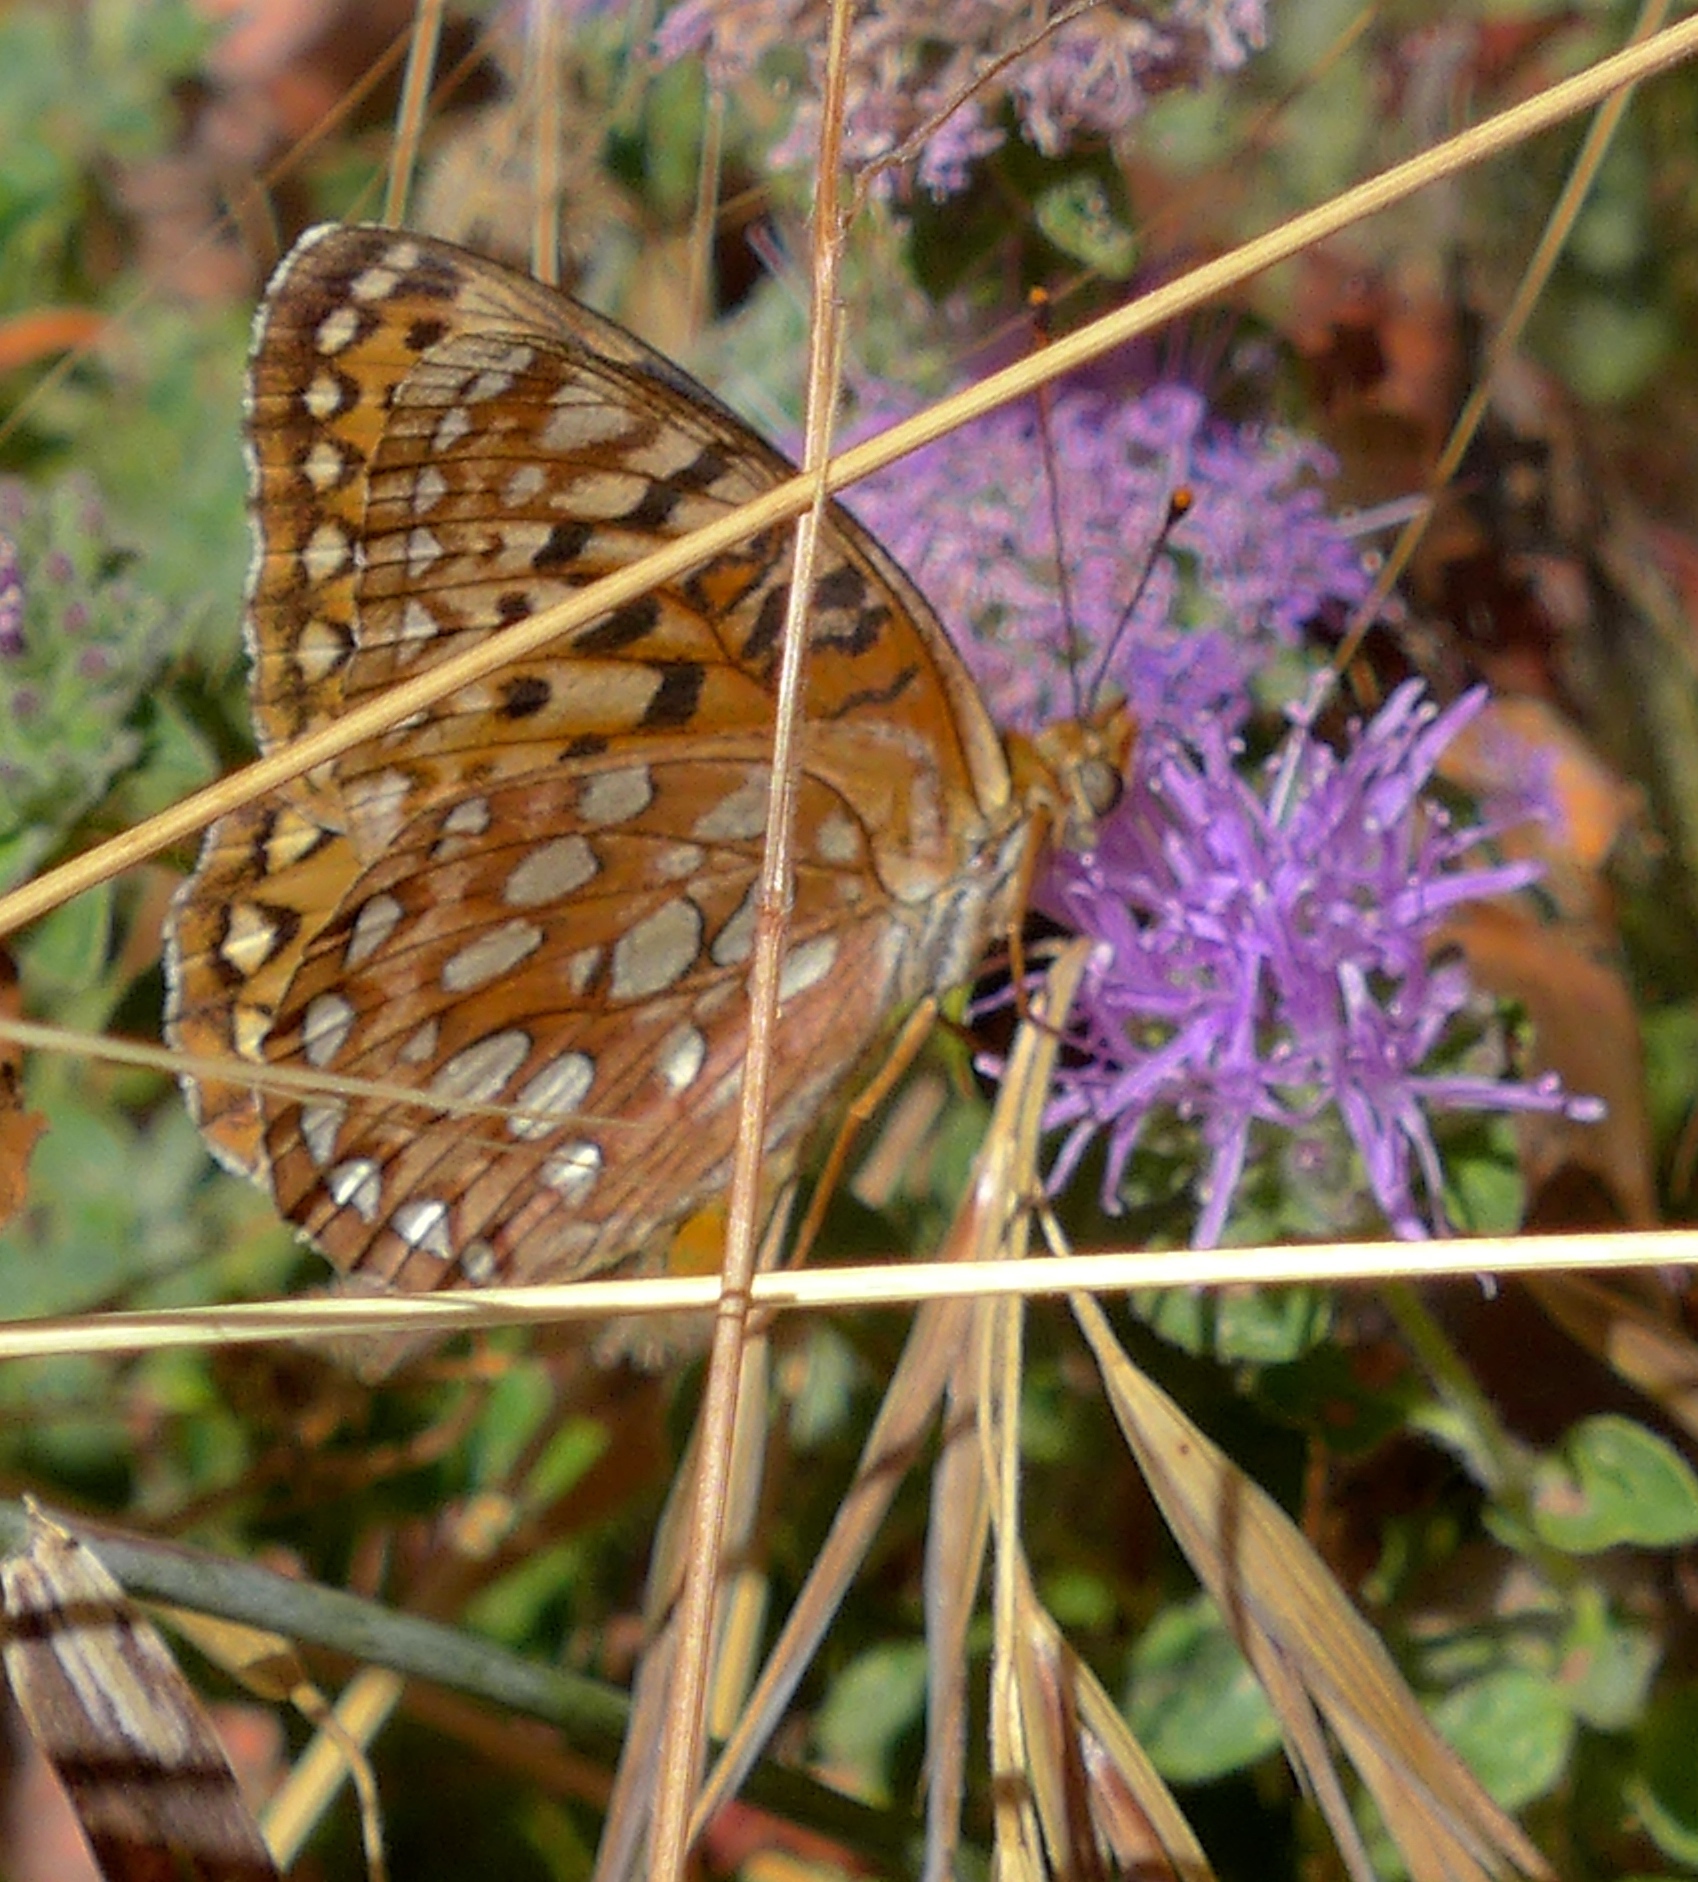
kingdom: Animalia
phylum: Arthropoda
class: Insecta
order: Lepidoptera
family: Nymphalidae
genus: Argynnis
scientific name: Argynnis coronis
